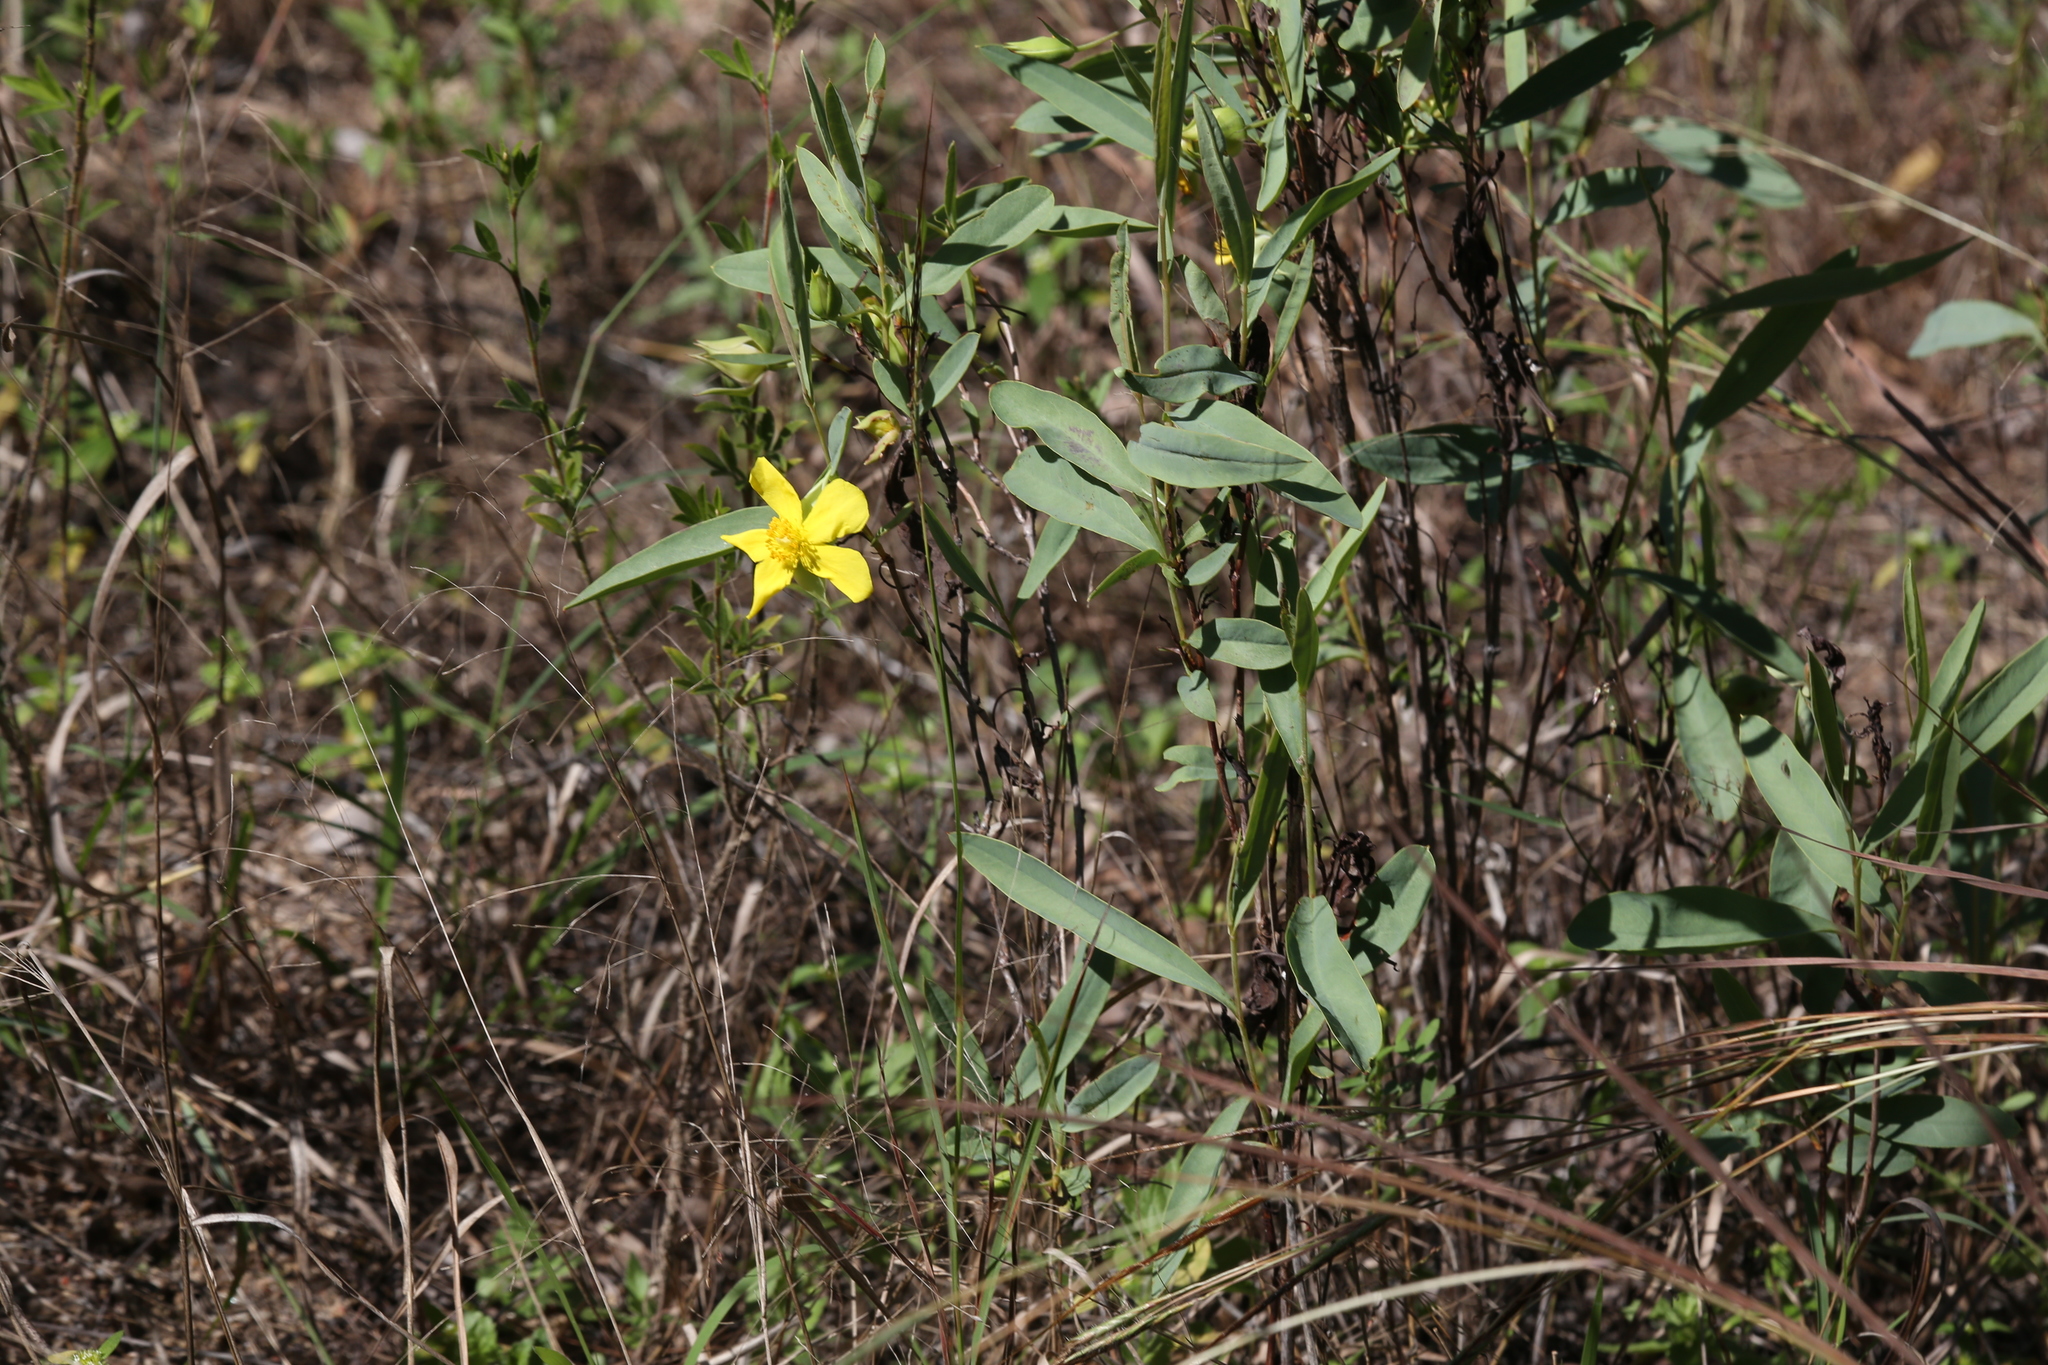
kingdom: Plantae
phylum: Tracheophyta
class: Magnoliopsida
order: Dilleniales
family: Dilleniaceae
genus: Hibbertia
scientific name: Hibbertia longifolia
